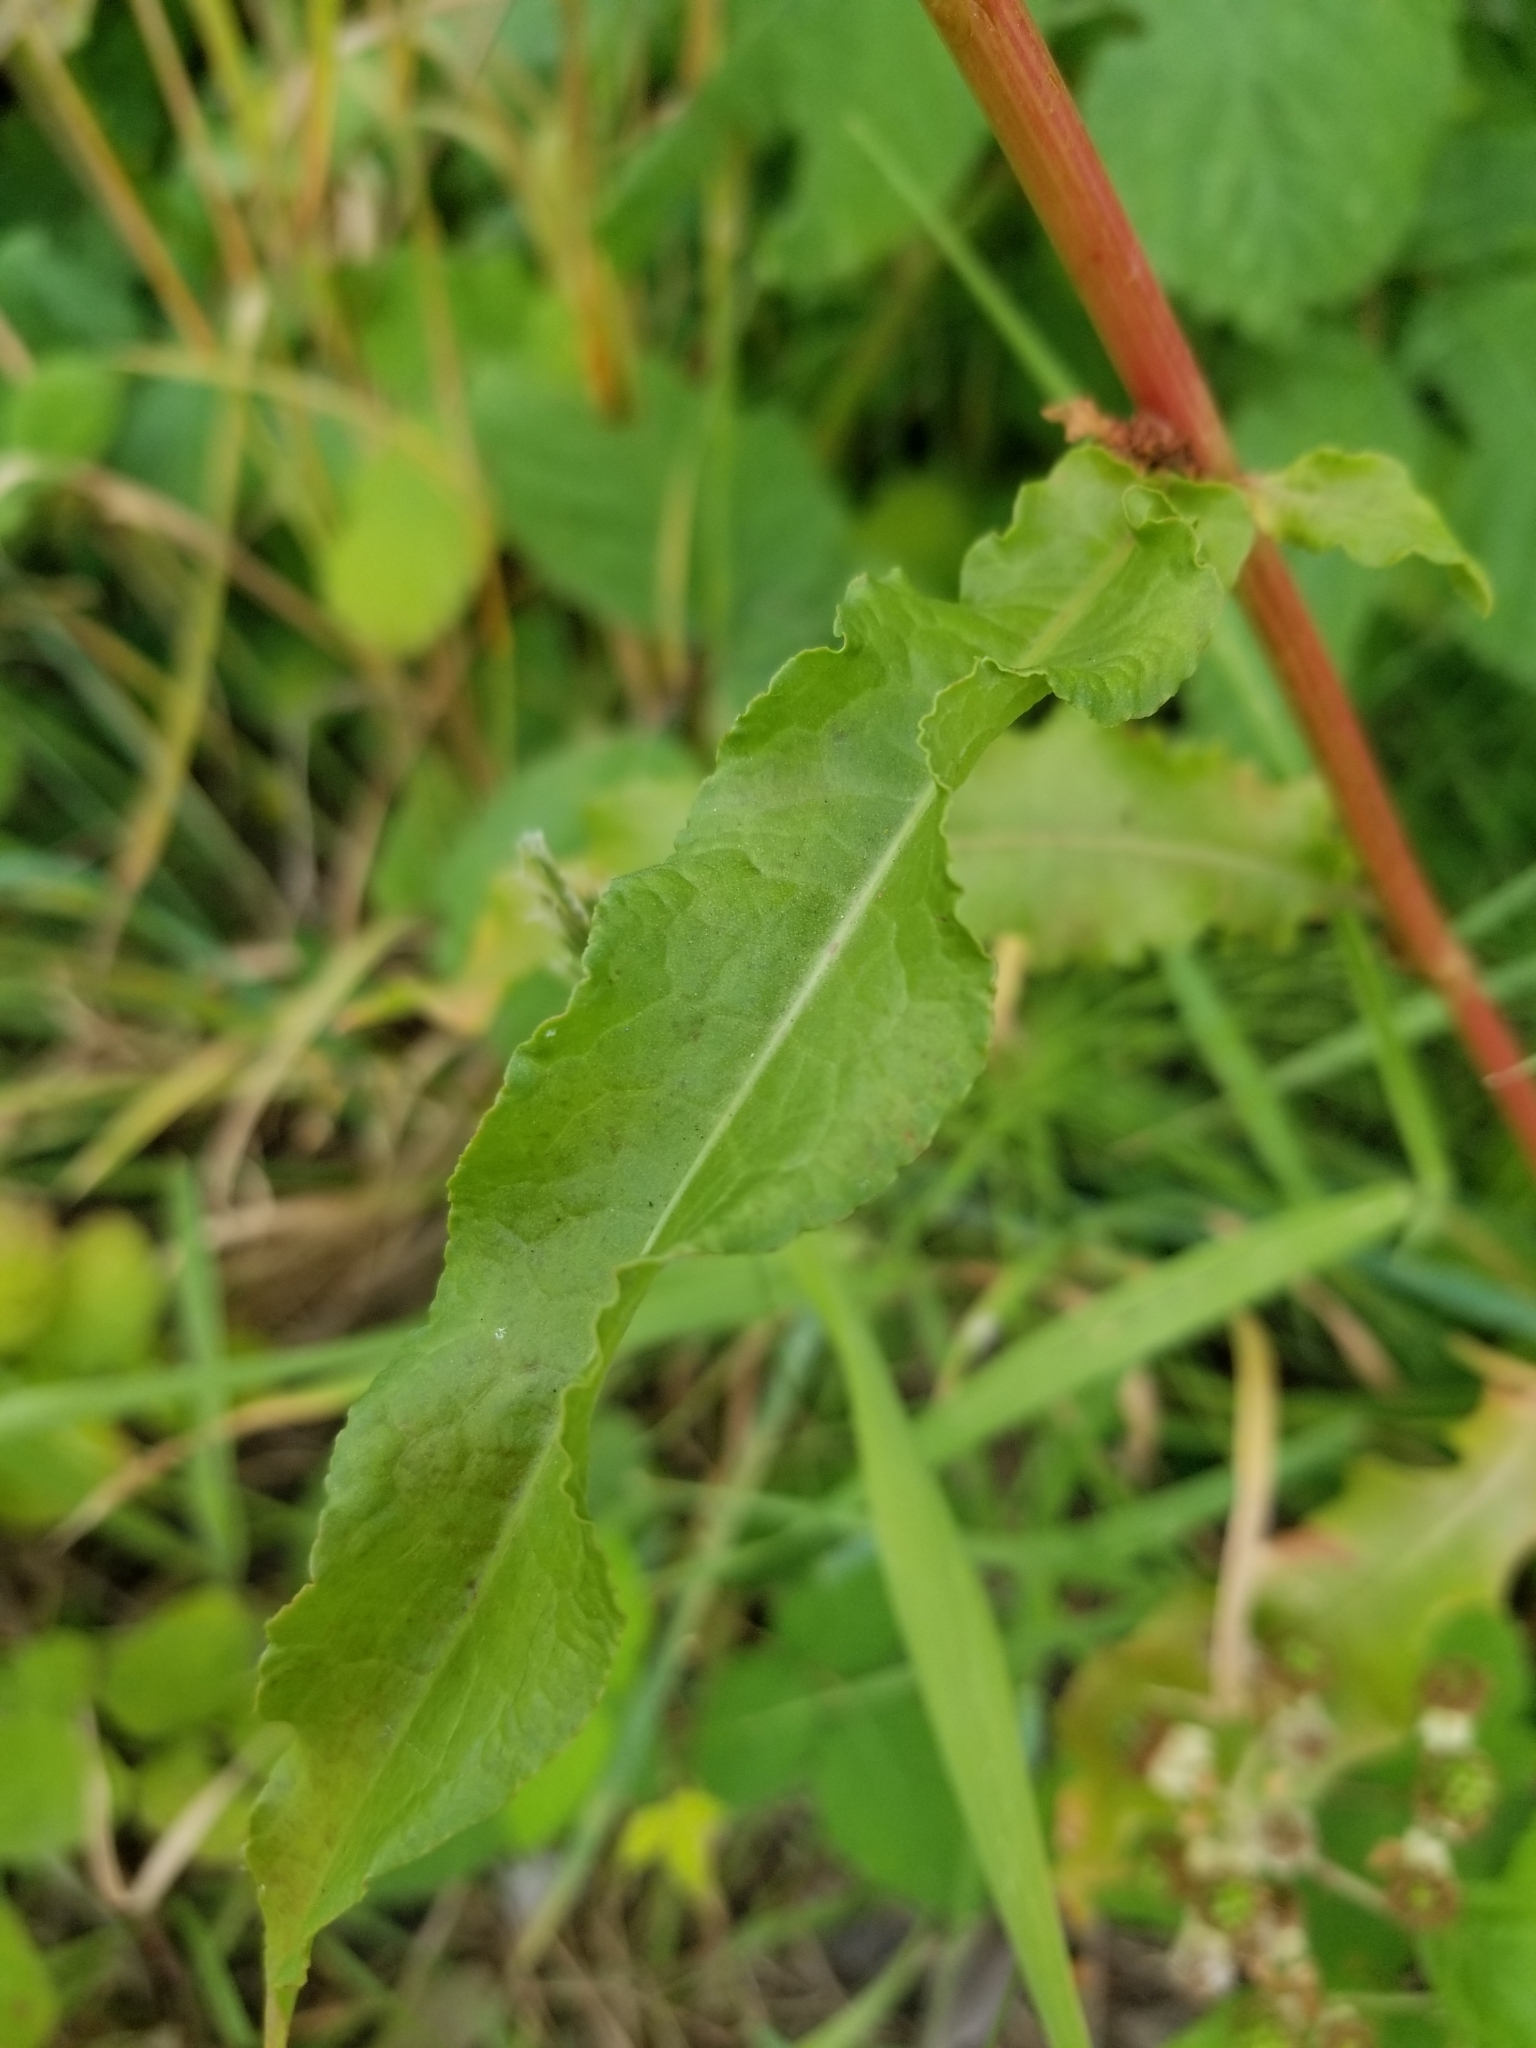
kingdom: Plantae
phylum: Tracheophyta
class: Magnoliopsida
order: Caryophyllales
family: Polygonaceae
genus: Rumex
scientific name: Rumex crispus
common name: Curled dock
